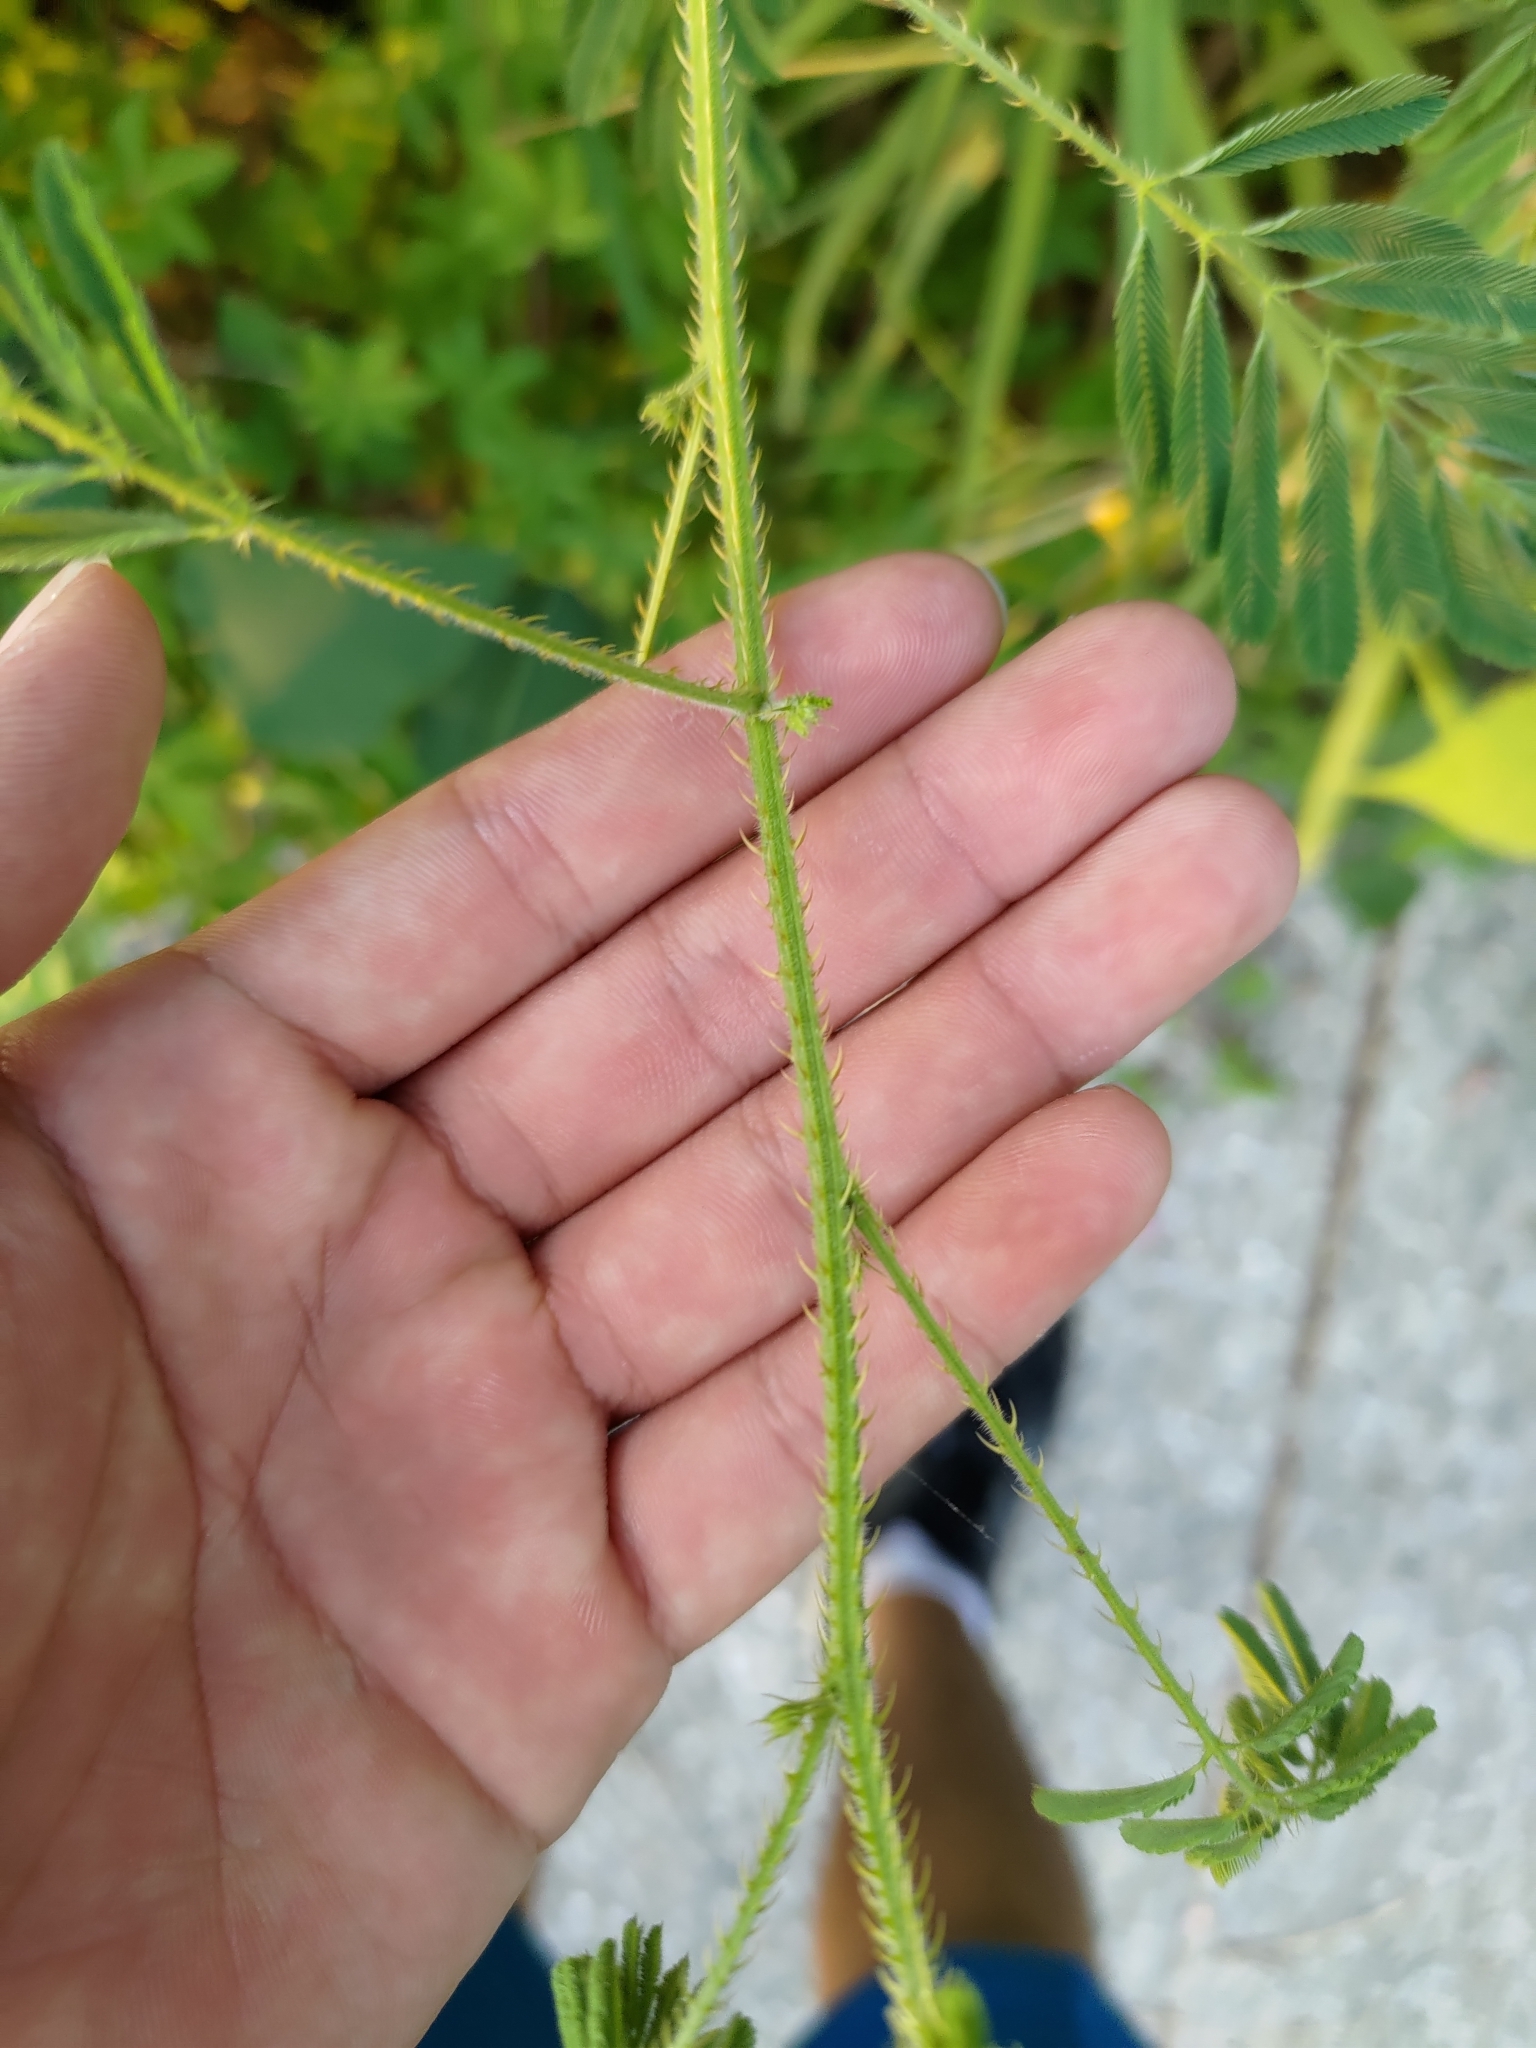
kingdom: Plantae
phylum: Tracheophyta
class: Magnoliopsida
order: Fabales
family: Fabaceae
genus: Mimosa
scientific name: Mimosa diplotricha
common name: Giant sensitive-plant
